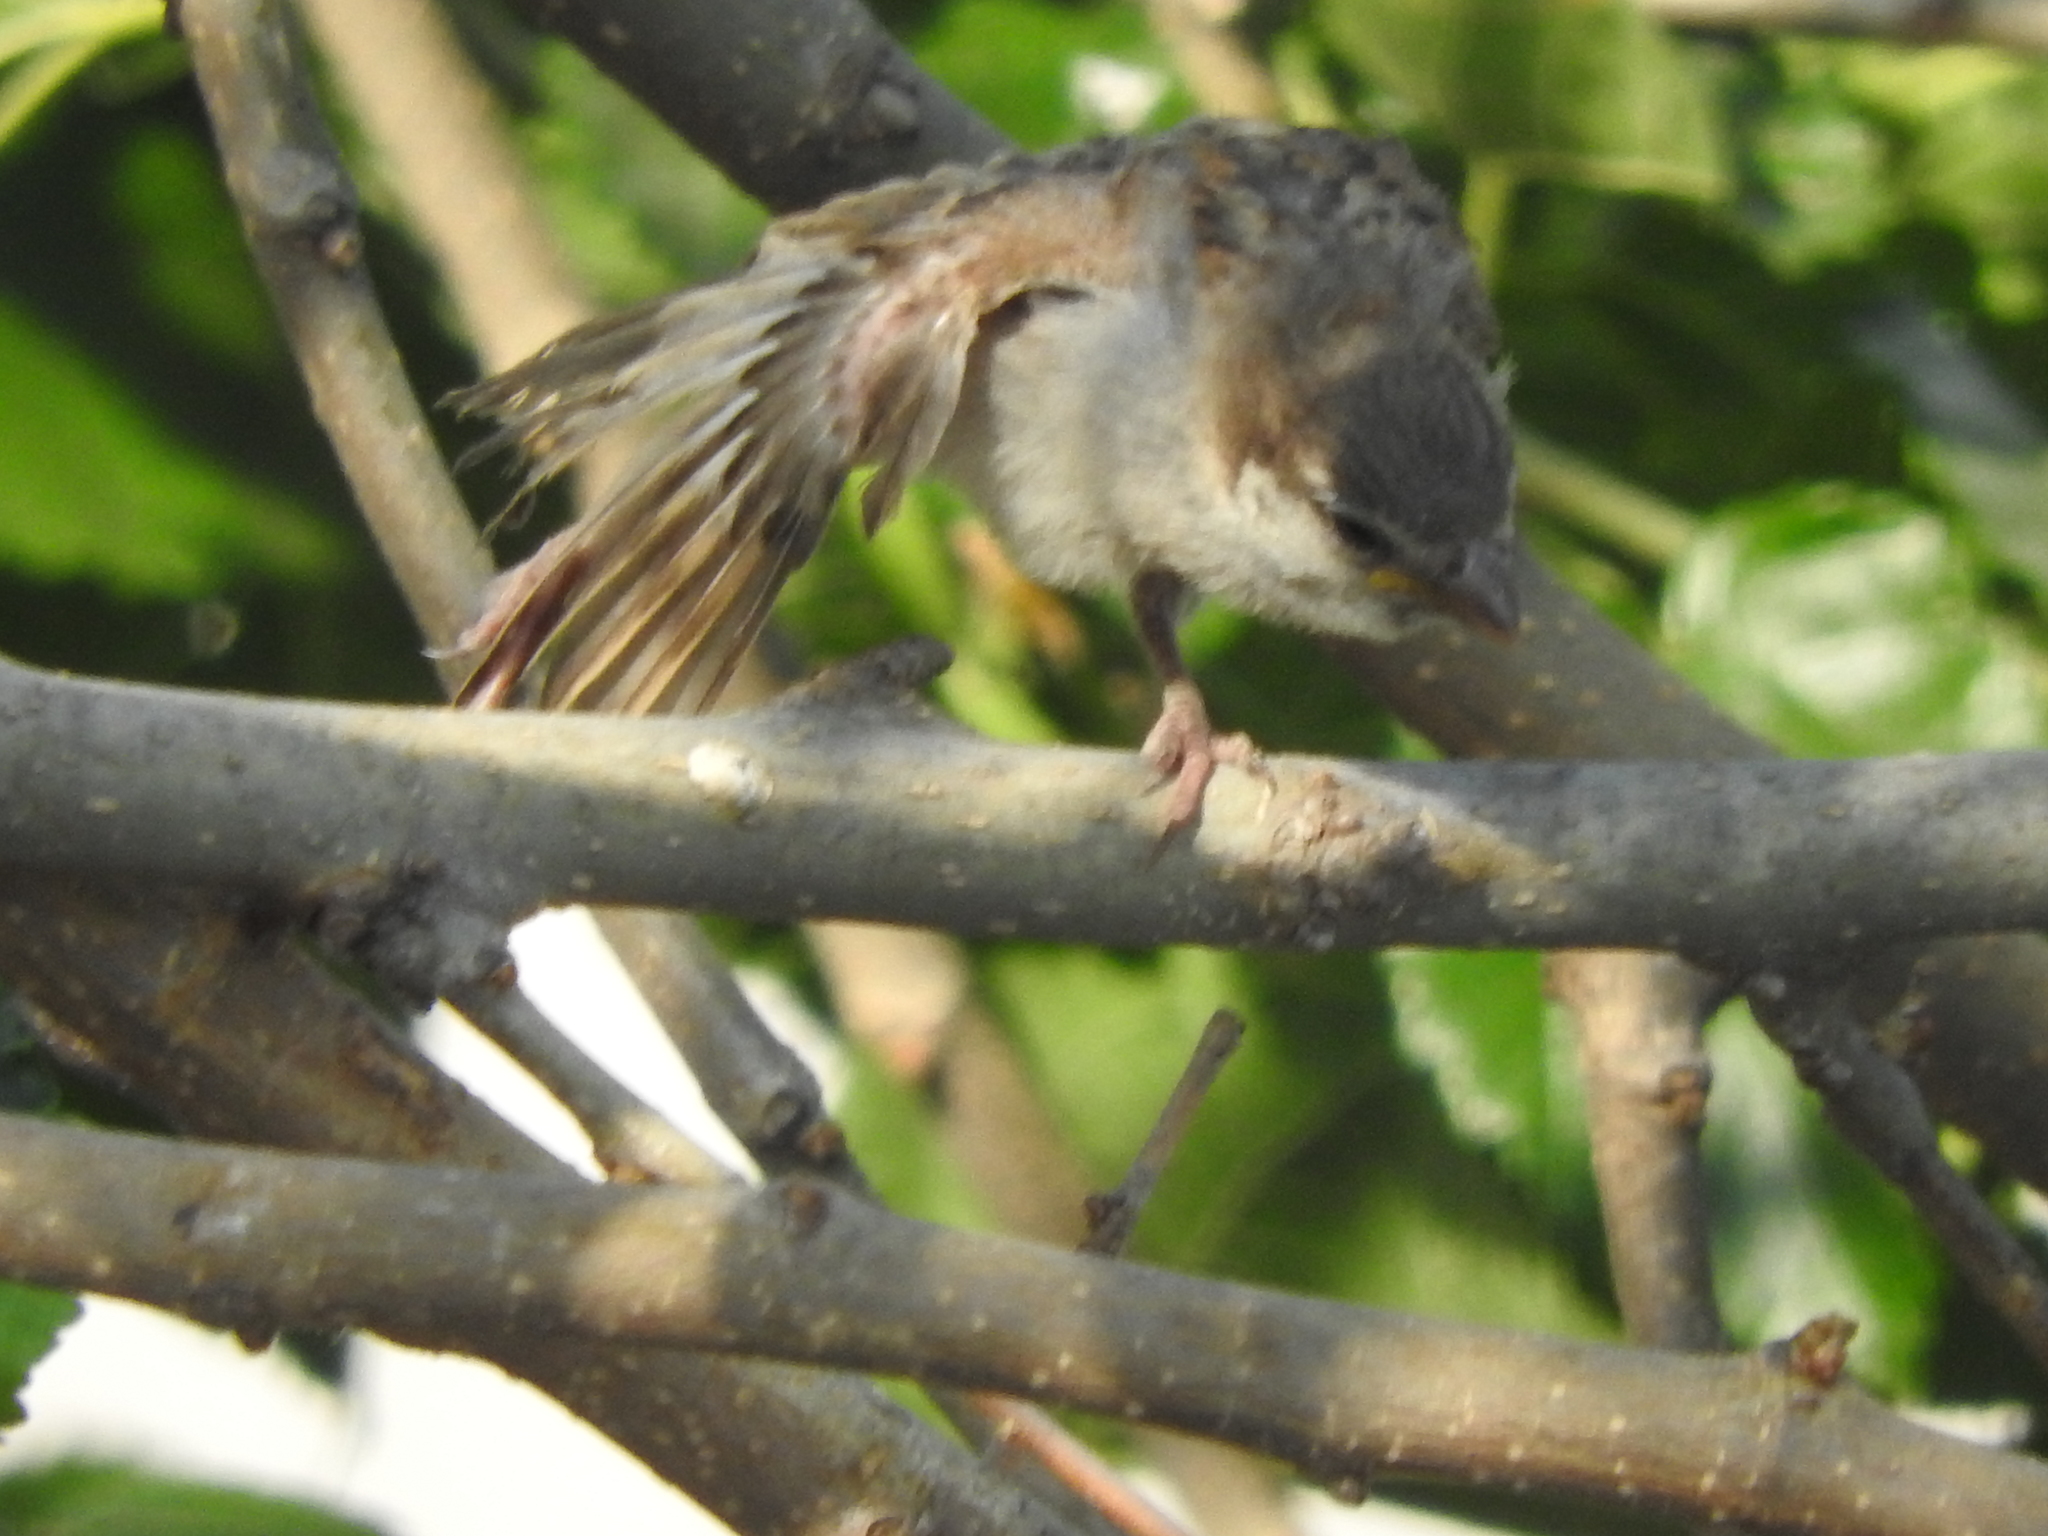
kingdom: Animalia
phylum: Chordata
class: Aves
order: Passeriformes
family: Passeridae
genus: Passer
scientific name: Passer domesticus
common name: House sparrow
